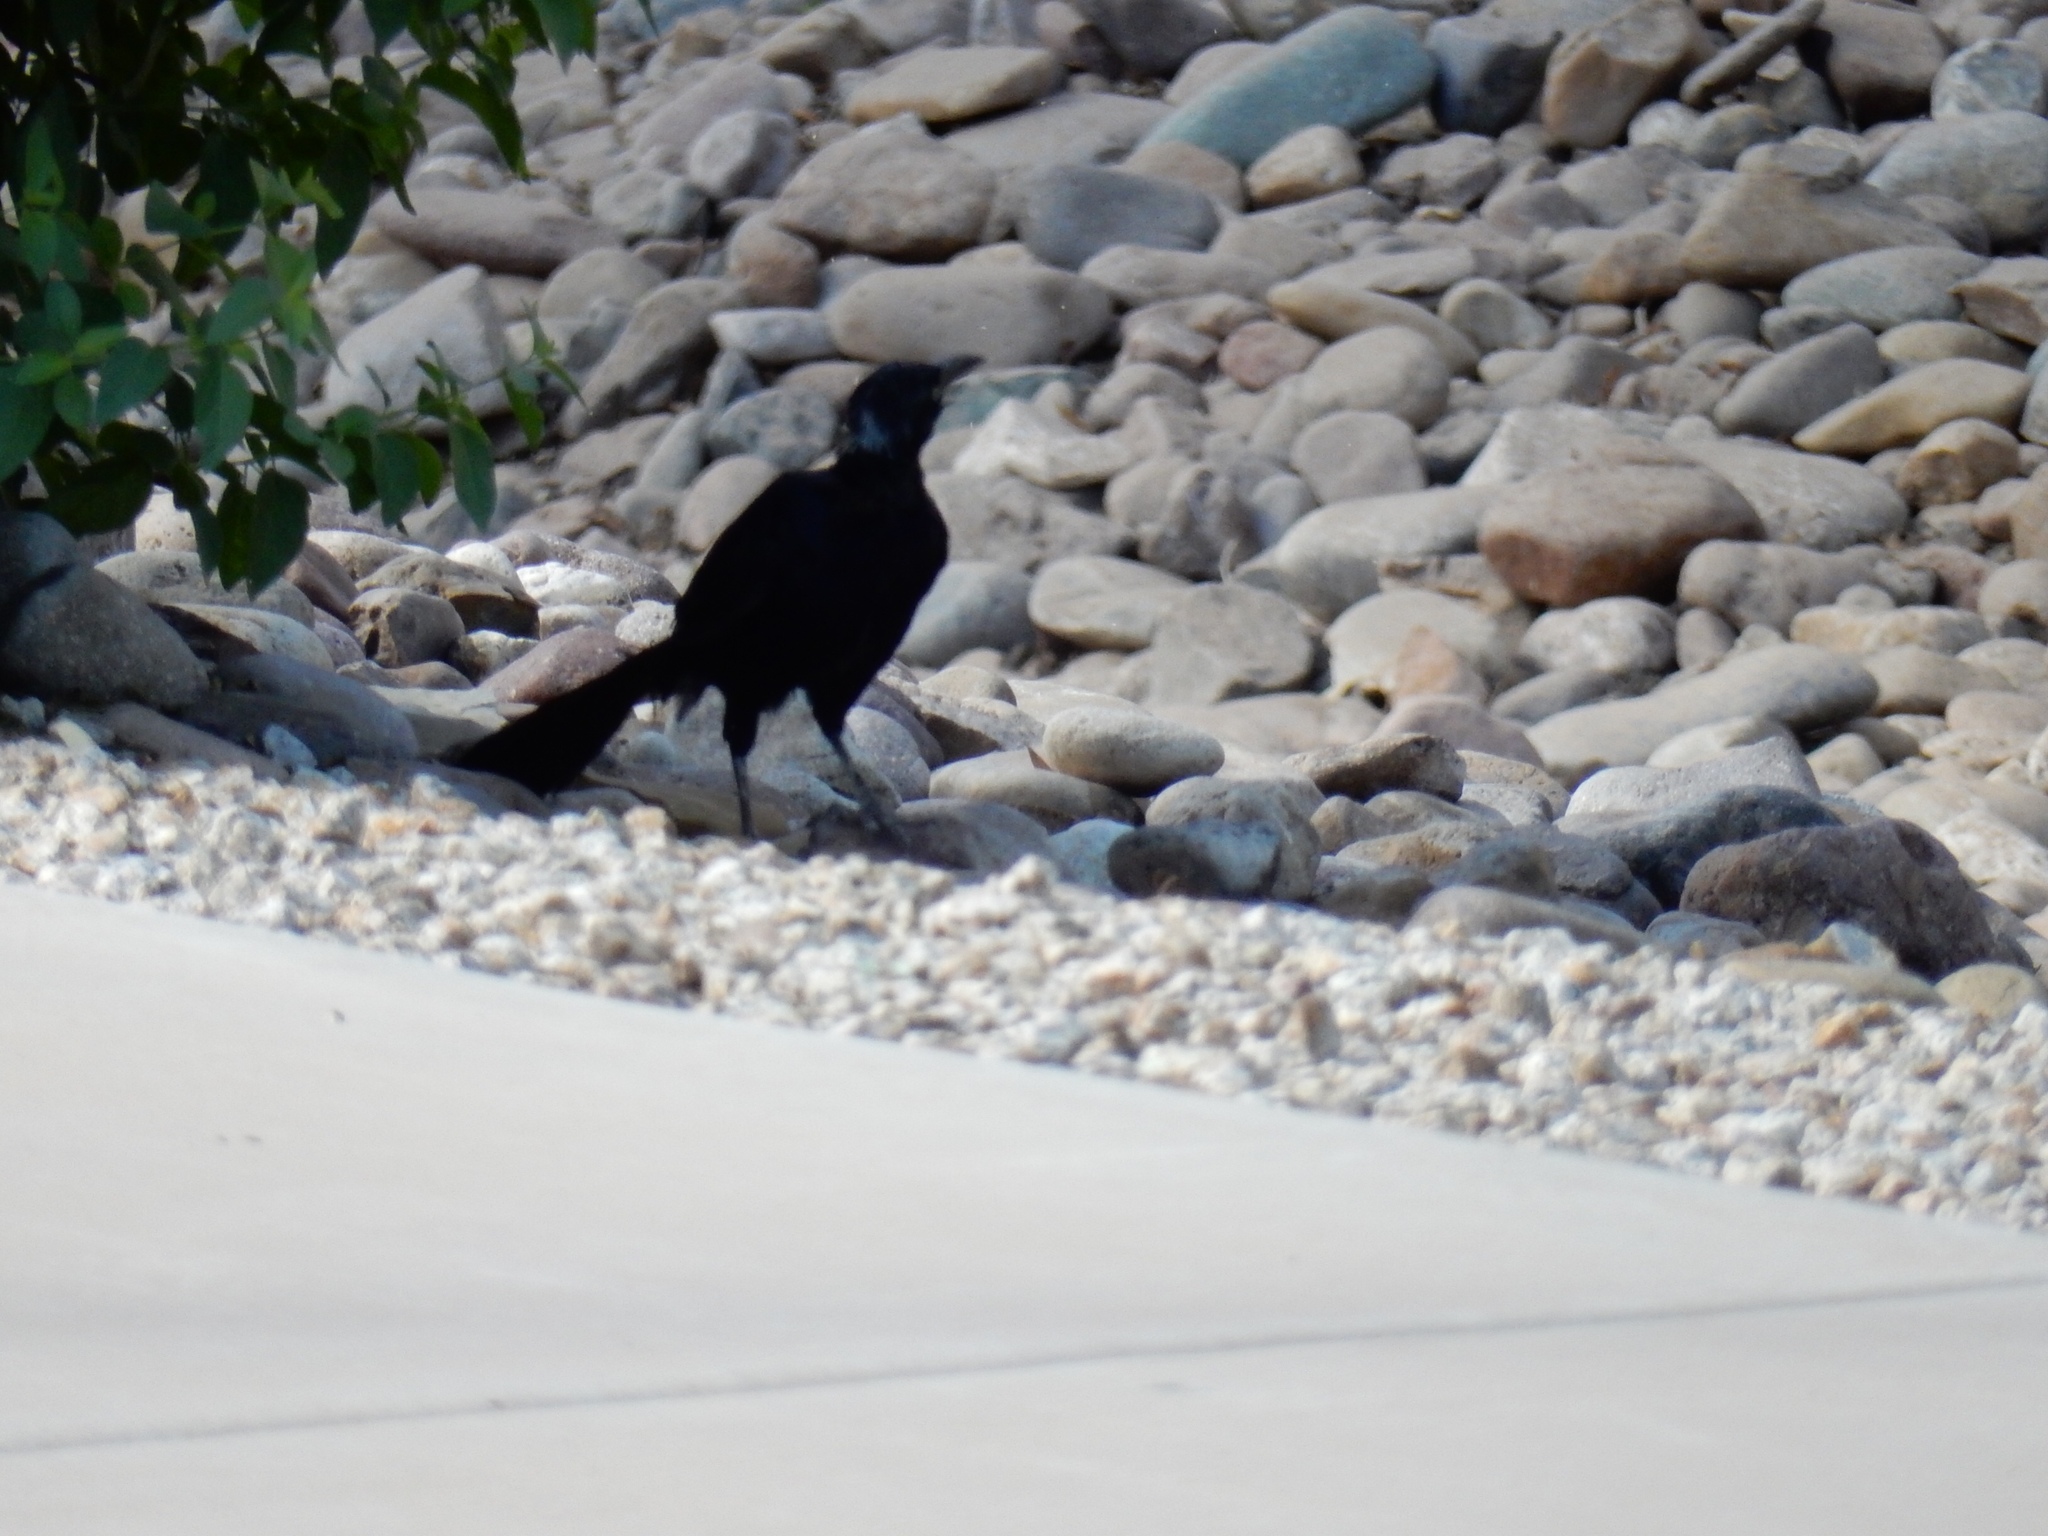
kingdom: Animalia
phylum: Chordata
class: Aves
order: Passeriformes
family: Icteridae
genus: Quiscalus
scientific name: Quiscalus mexicanus
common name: Great-tailed grackle
